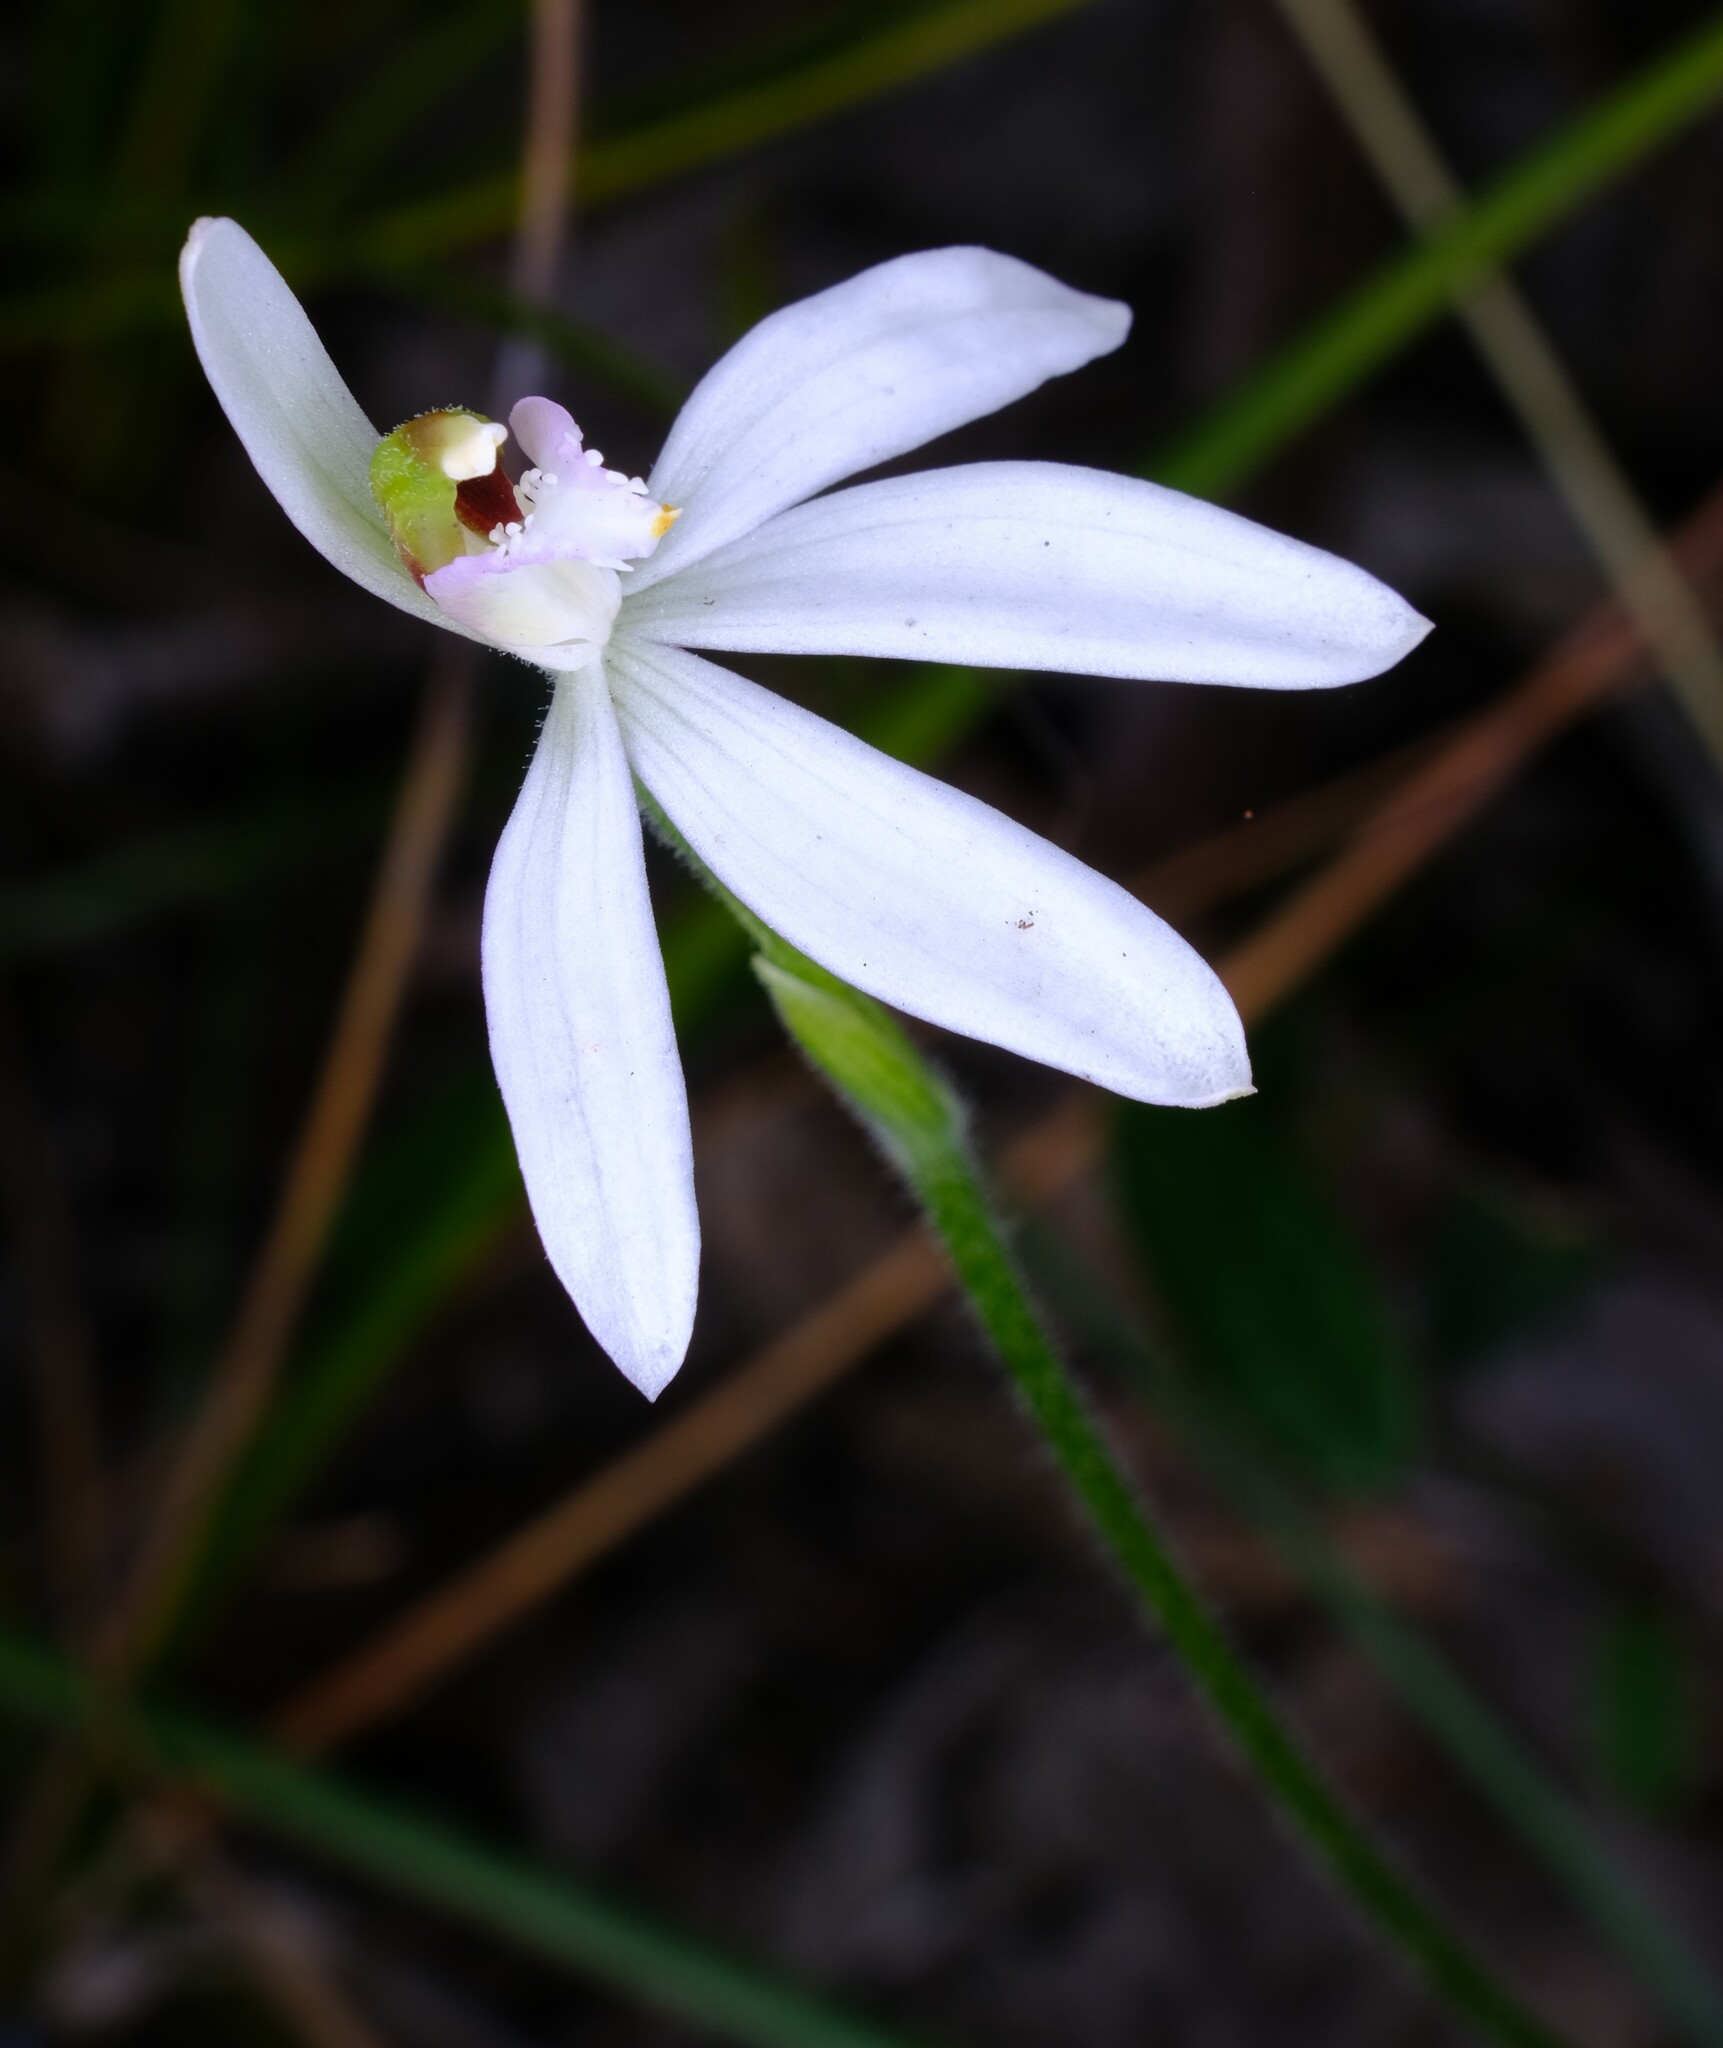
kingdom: Plantae
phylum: Tracheophyta
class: Liliopsida
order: Asparagales
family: Orchidaceae
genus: Caladenia
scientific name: Caladenia catenata
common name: White caladenia
